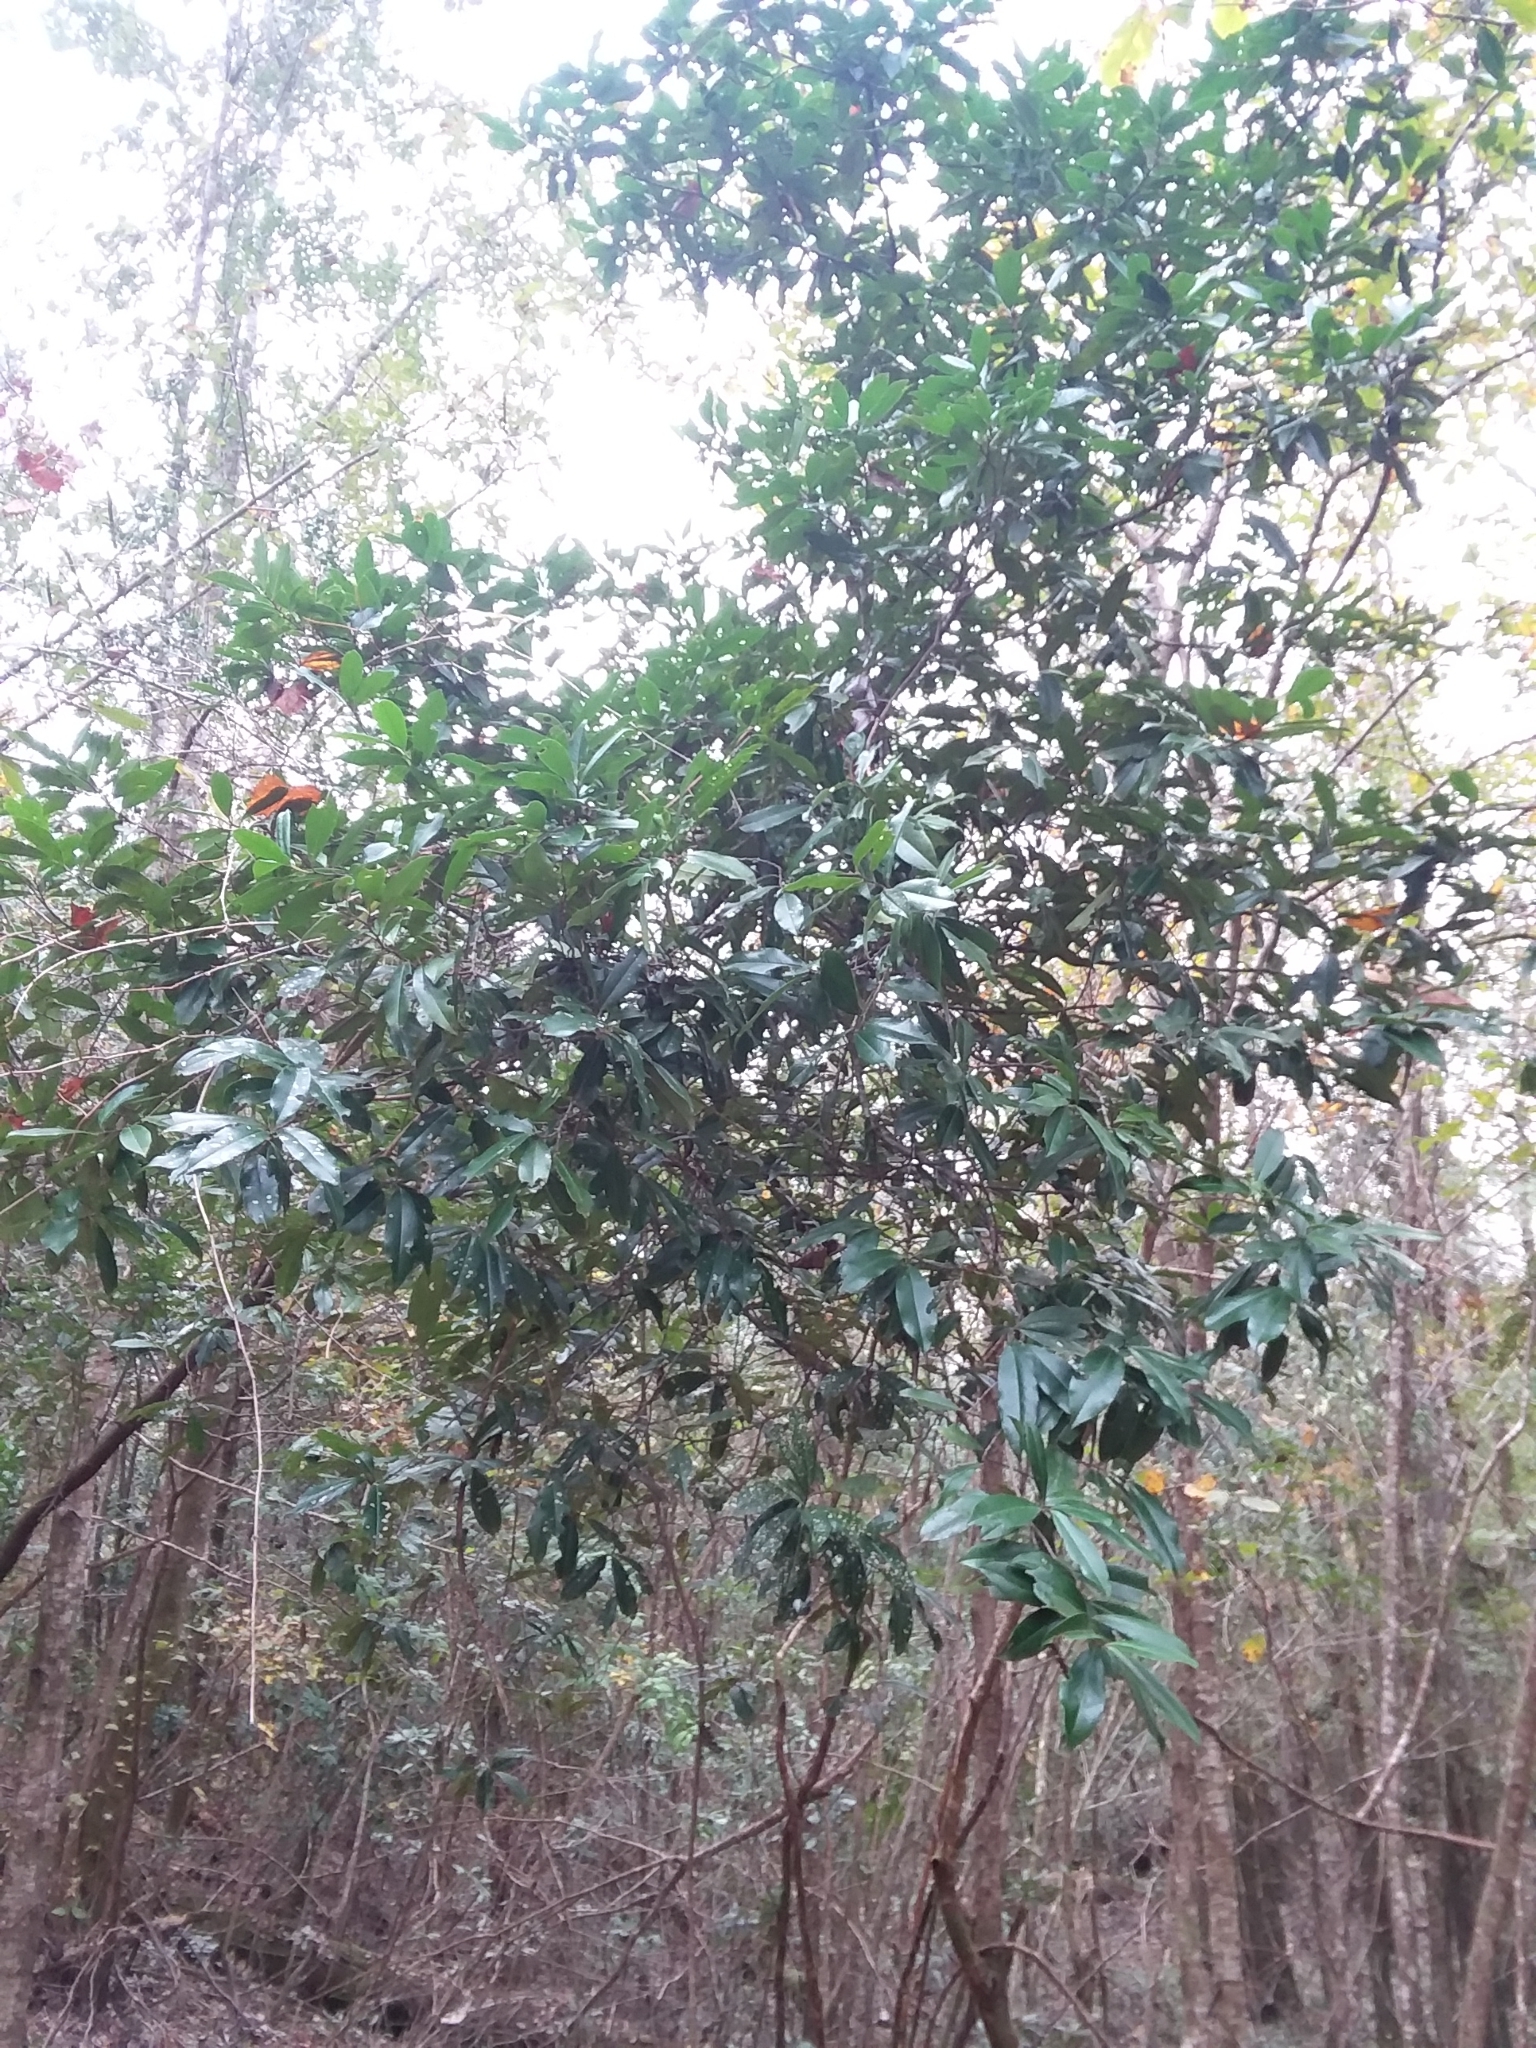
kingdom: Plantae
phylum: Tracheophyta
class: Magnoliopsida
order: Rosales
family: Rosaceae
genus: Prunus
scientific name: Prunus caroliniana
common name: Carolina laurel cherry
